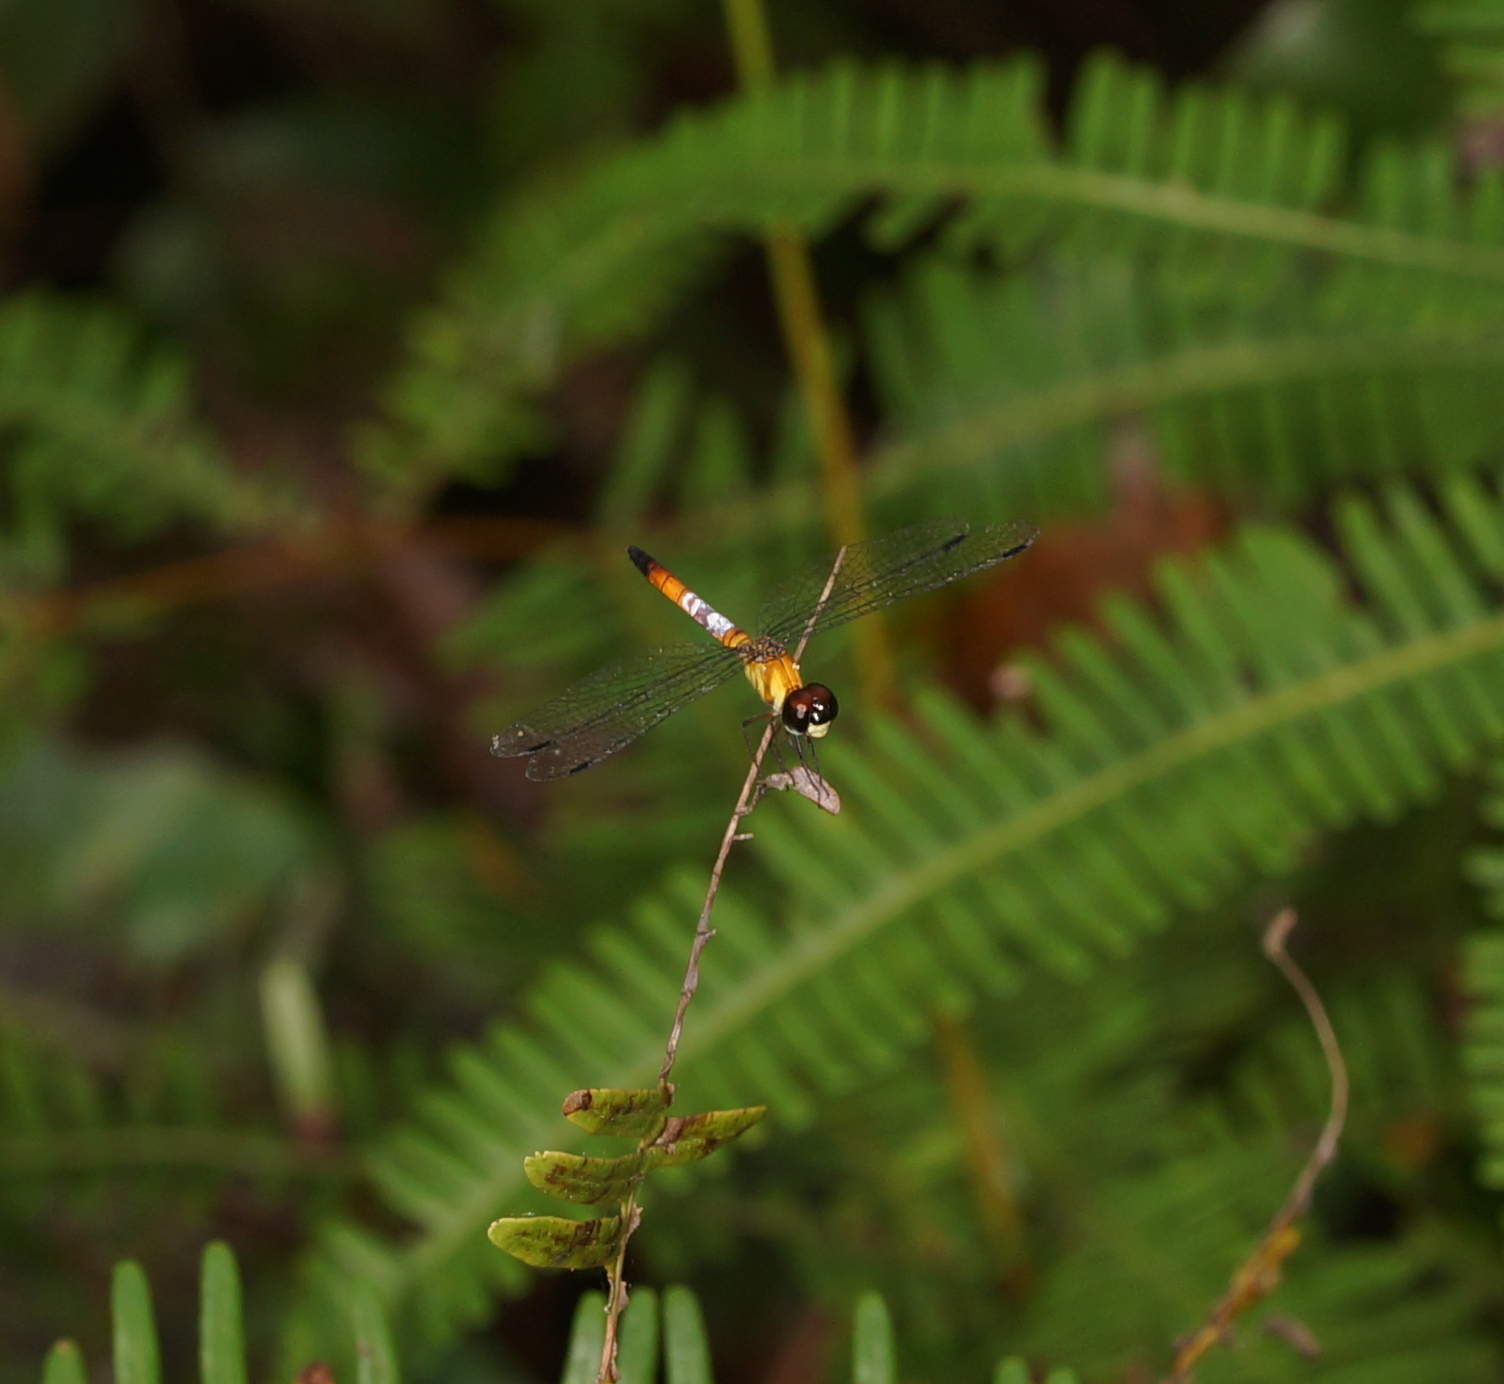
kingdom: Animalia
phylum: Arthropoda
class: Insecta
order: Odonata
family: Libellulidae
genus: Brachygonia
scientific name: Brachygonia oculata
